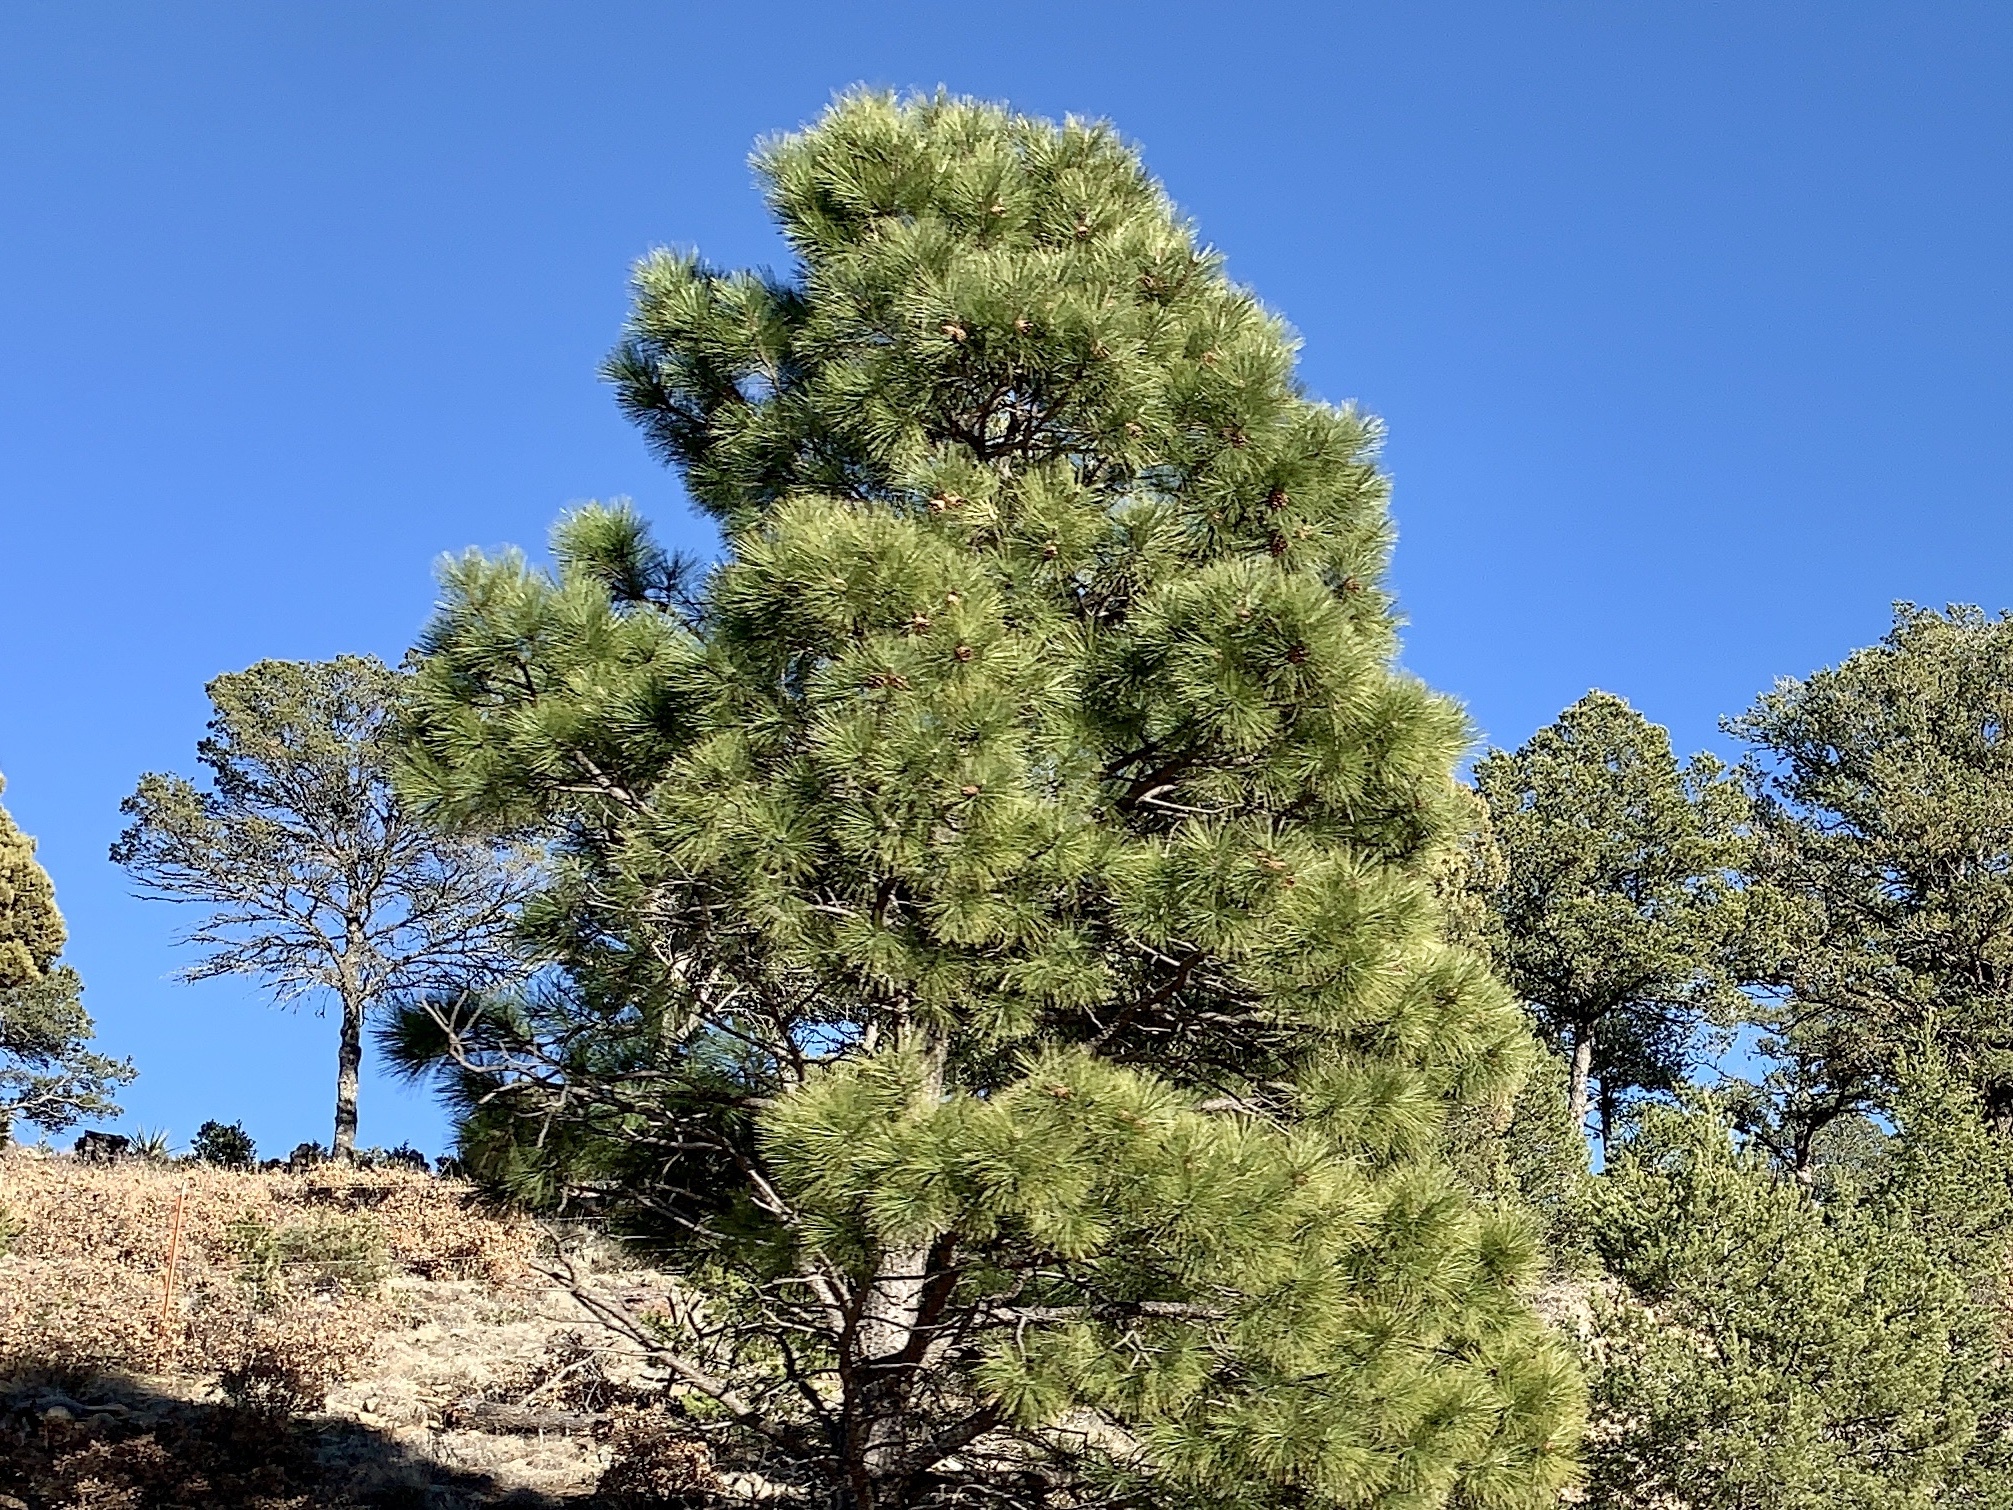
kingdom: Plantae
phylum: Tracheophyta
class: Pinopsida
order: Pinales
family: Pinaceae
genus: Pinus
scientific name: Pinus ponderosa
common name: Western yellow-pine
